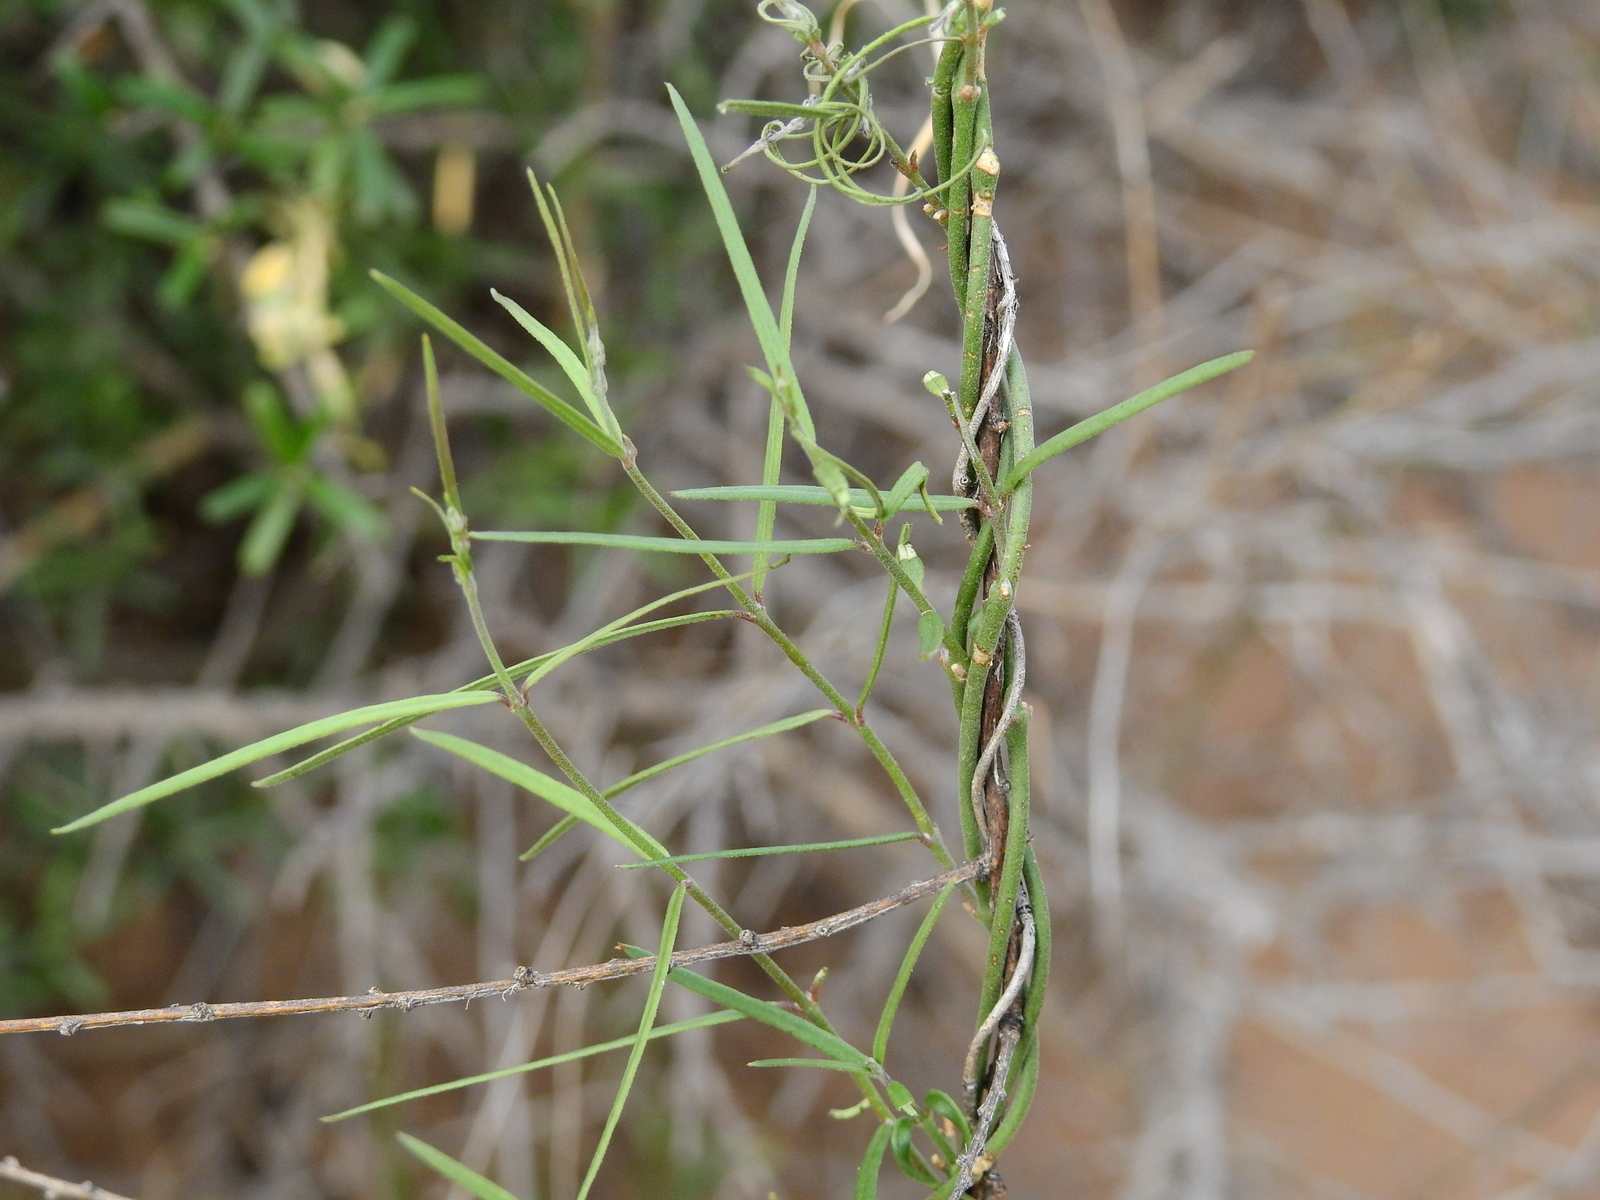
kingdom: Plantae
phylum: Tracheophyta
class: Magnoliopsida
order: Gentianales
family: Apocynaceae
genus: Tweedia
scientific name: Tweedia brunonis
